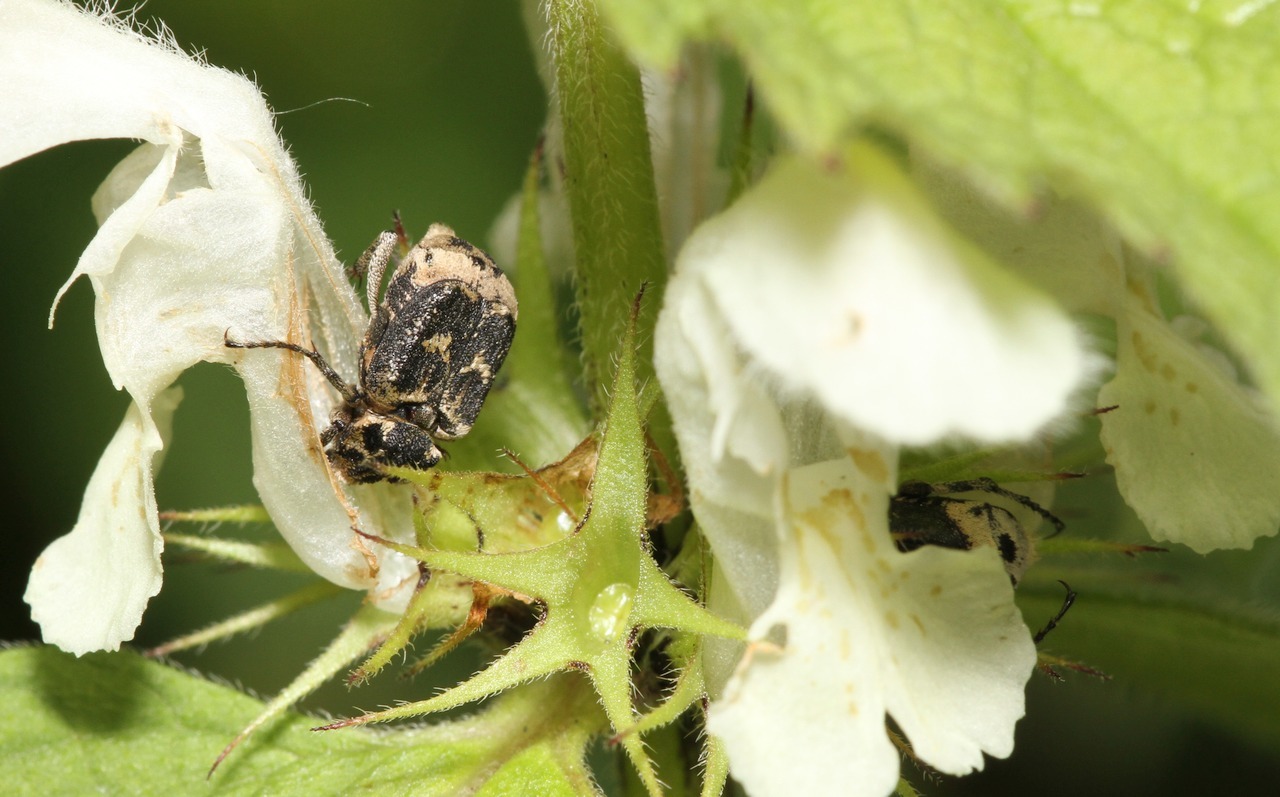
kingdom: Animalia
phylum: Arthropoda
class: Insecta
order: Coleoptera
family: Scarabaeidae
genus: Valgus
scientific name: Valgus hemipterus
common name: Bug flower chafer
